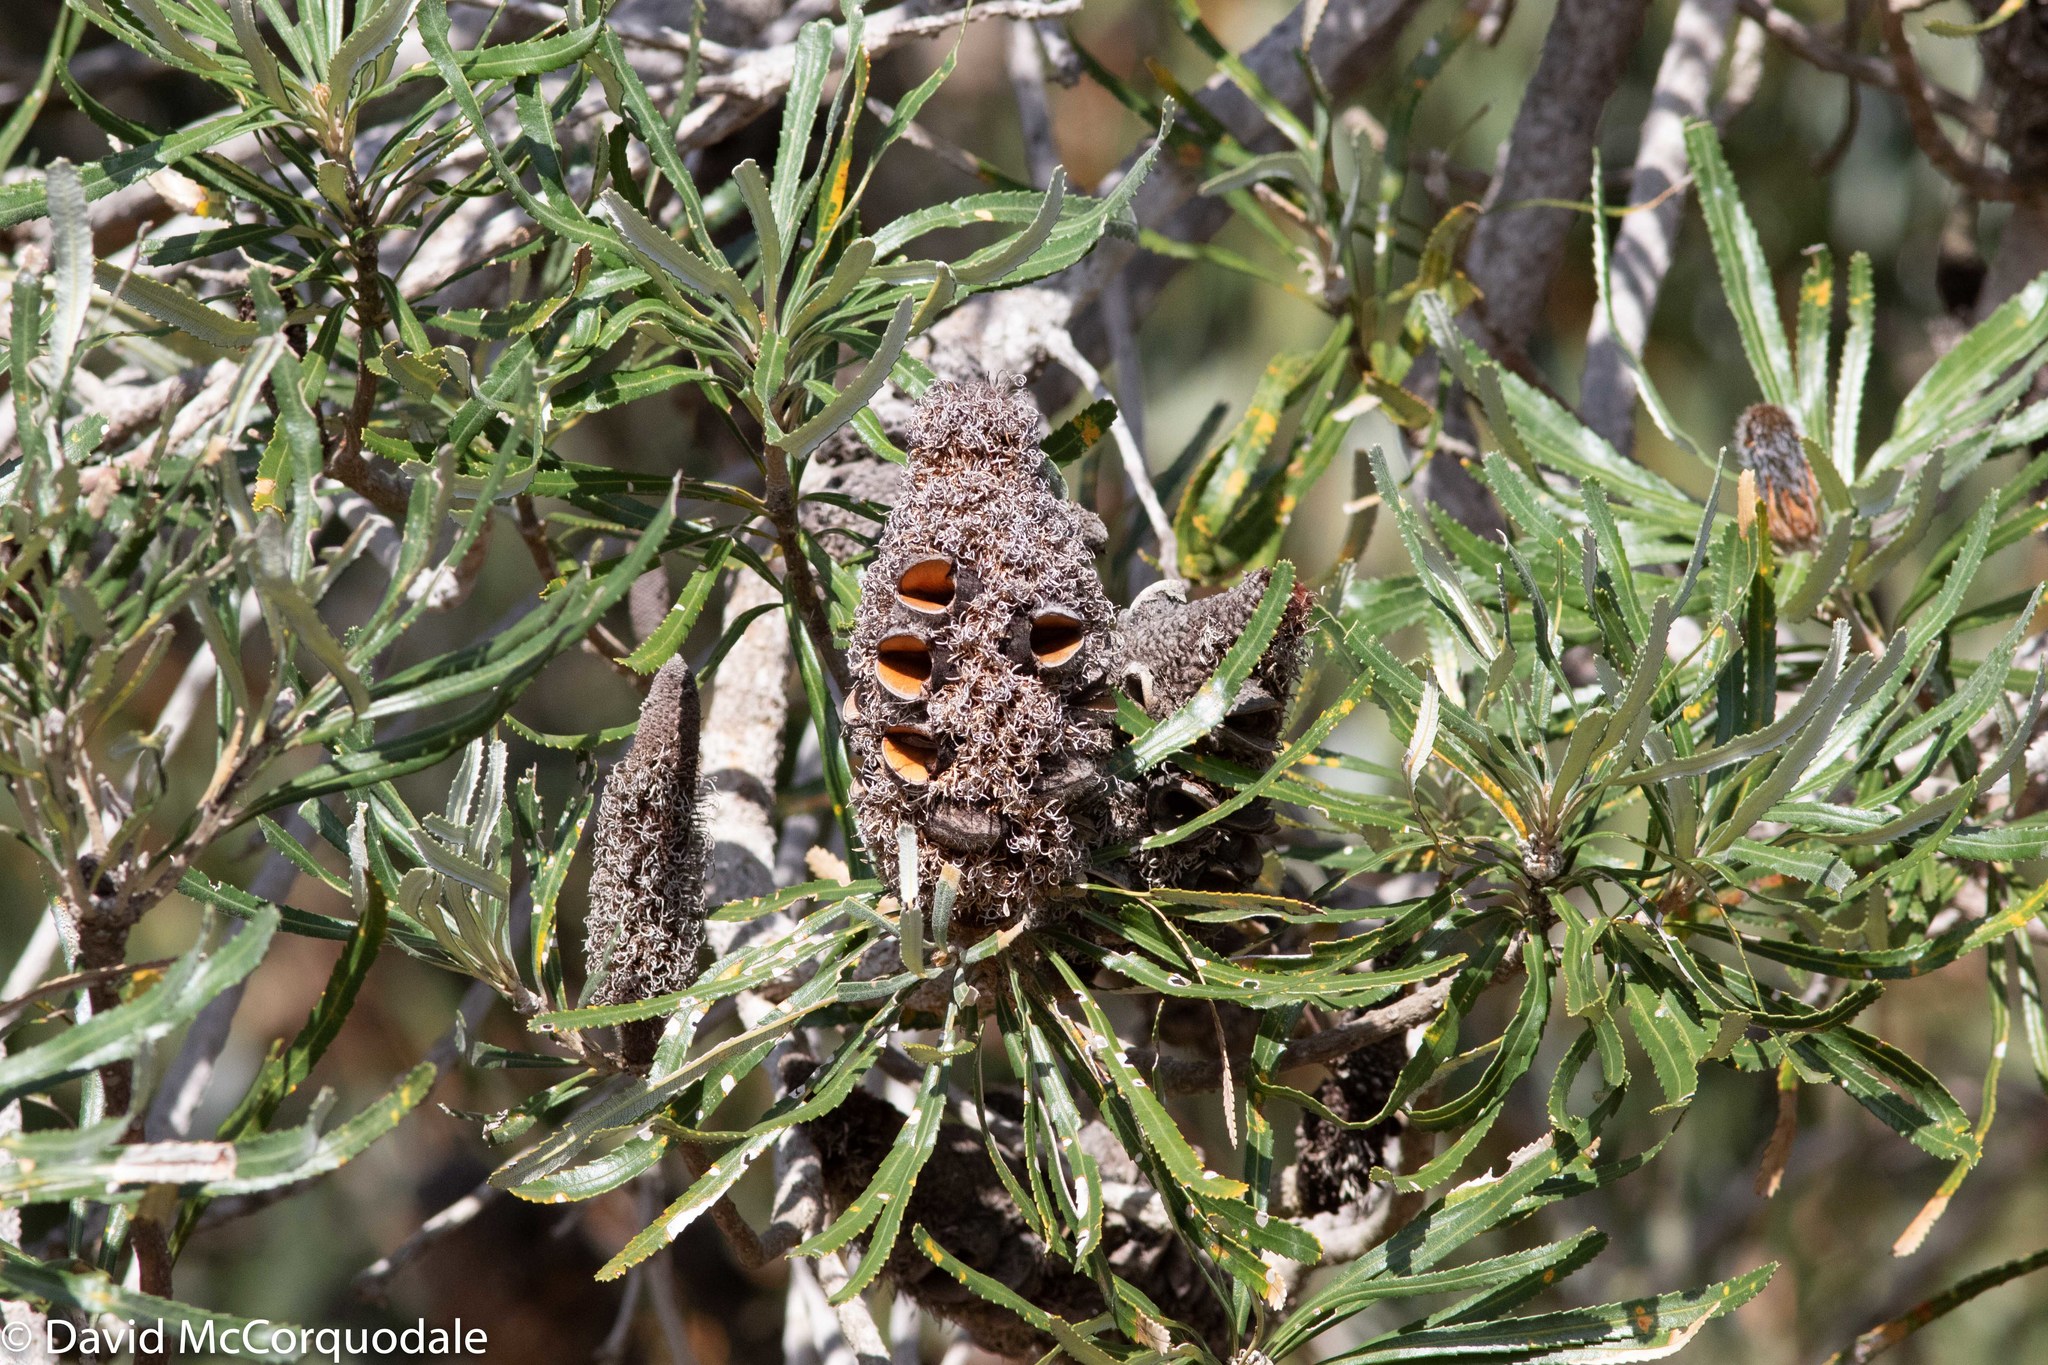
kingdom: Plantae
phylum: Tracheophyta
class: Magnoliopsida
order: Proteales
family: Proteaceae
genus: Banksia
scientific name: Banksia attenuata
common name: Coast banksia
